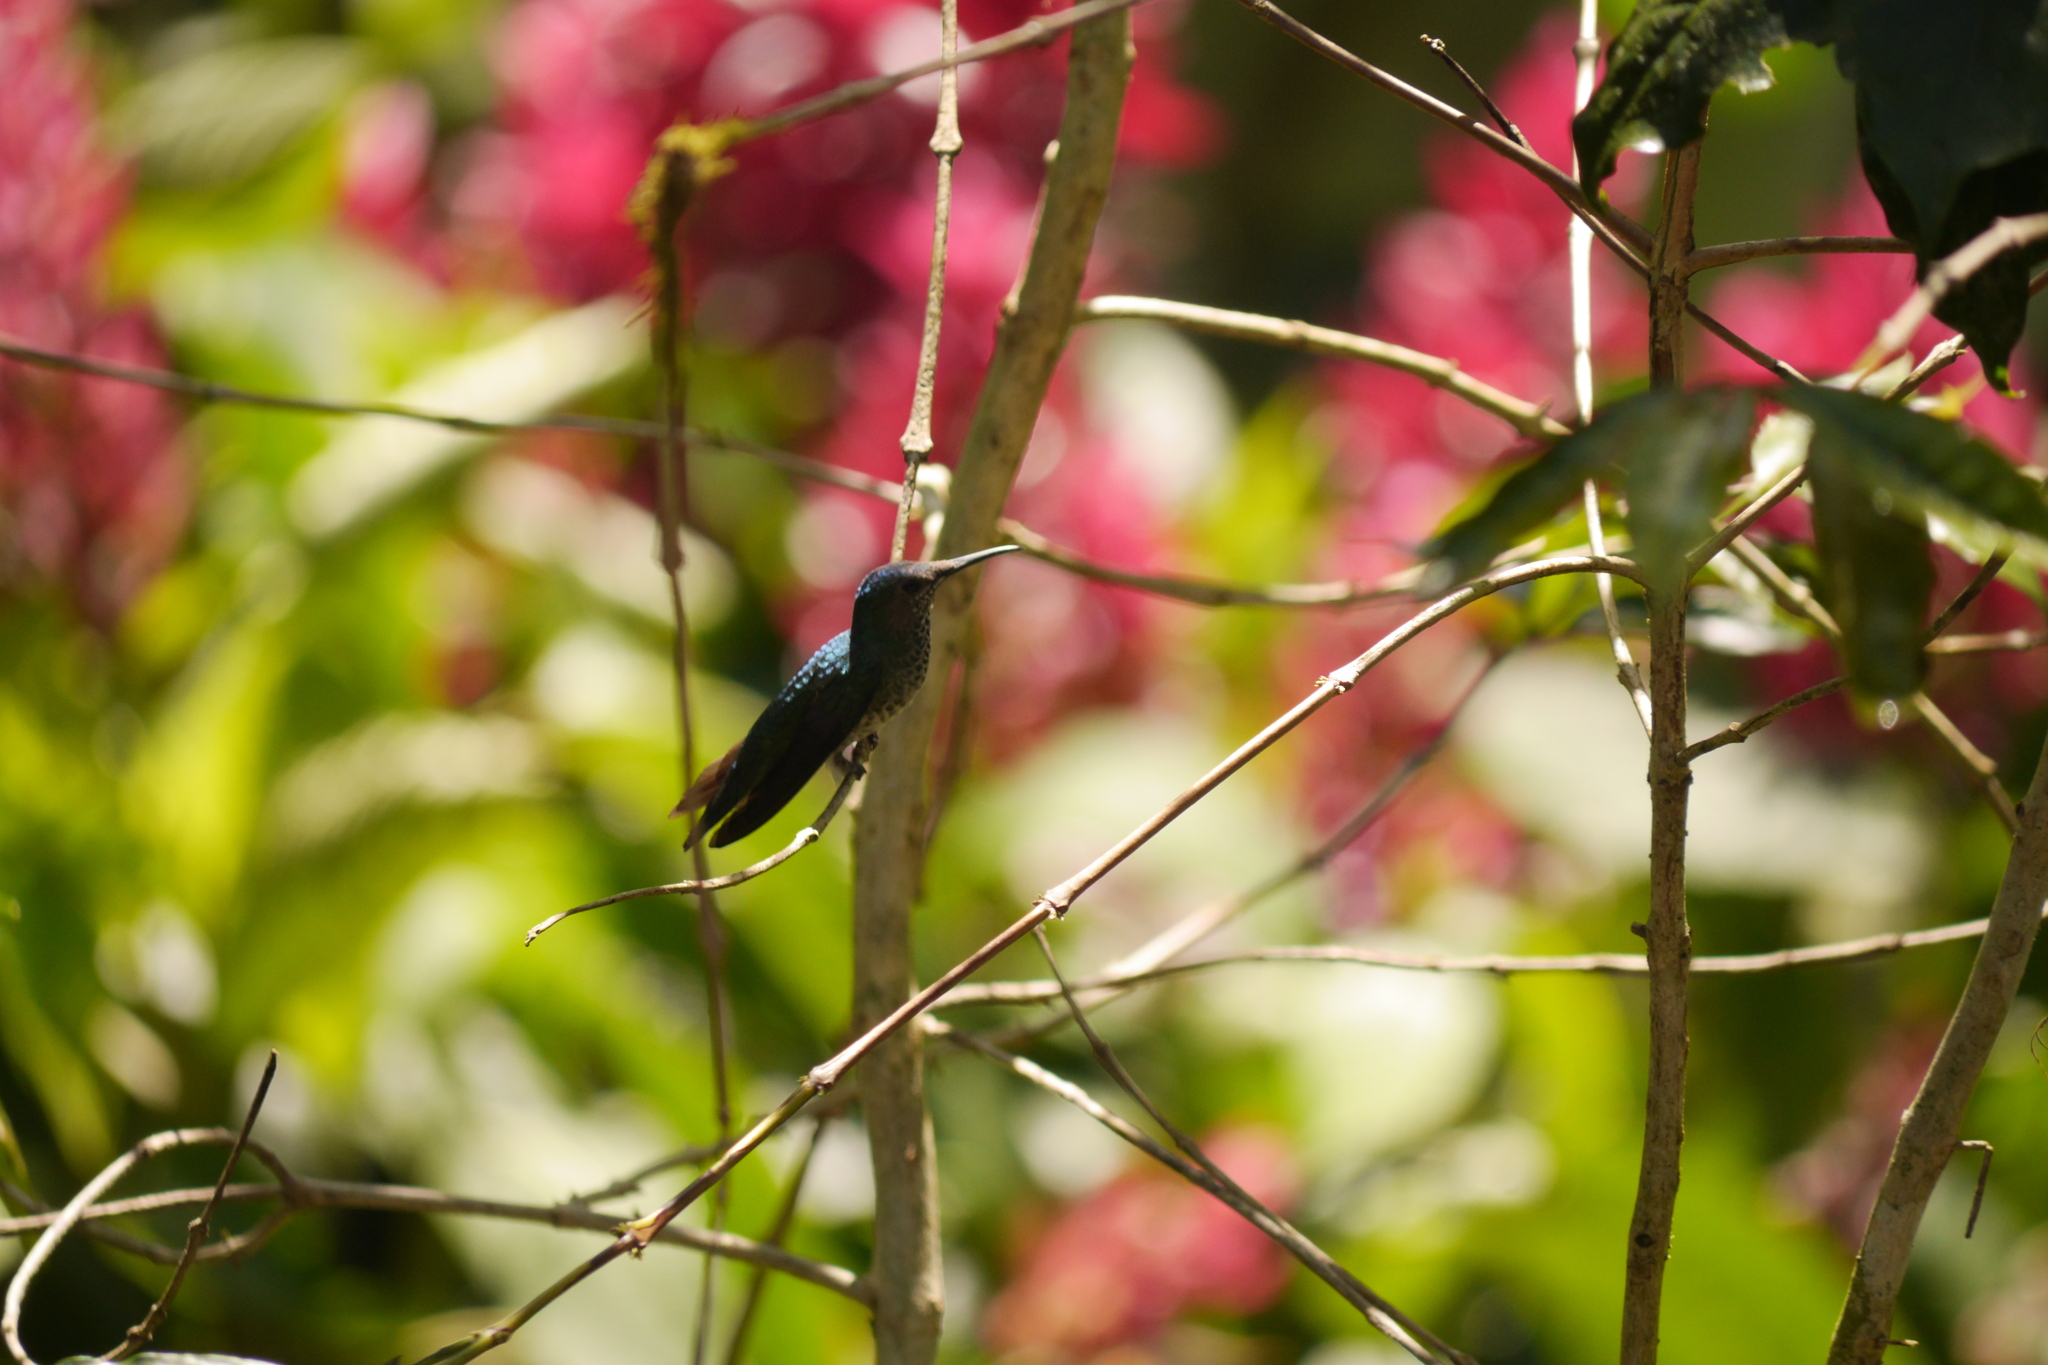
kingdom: Animalia
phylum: Chordata
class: Aves
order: Apodiformes
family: Trochilidae
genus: Florisuga
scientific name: Florisuga mellivora
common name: White-necked jacobin
